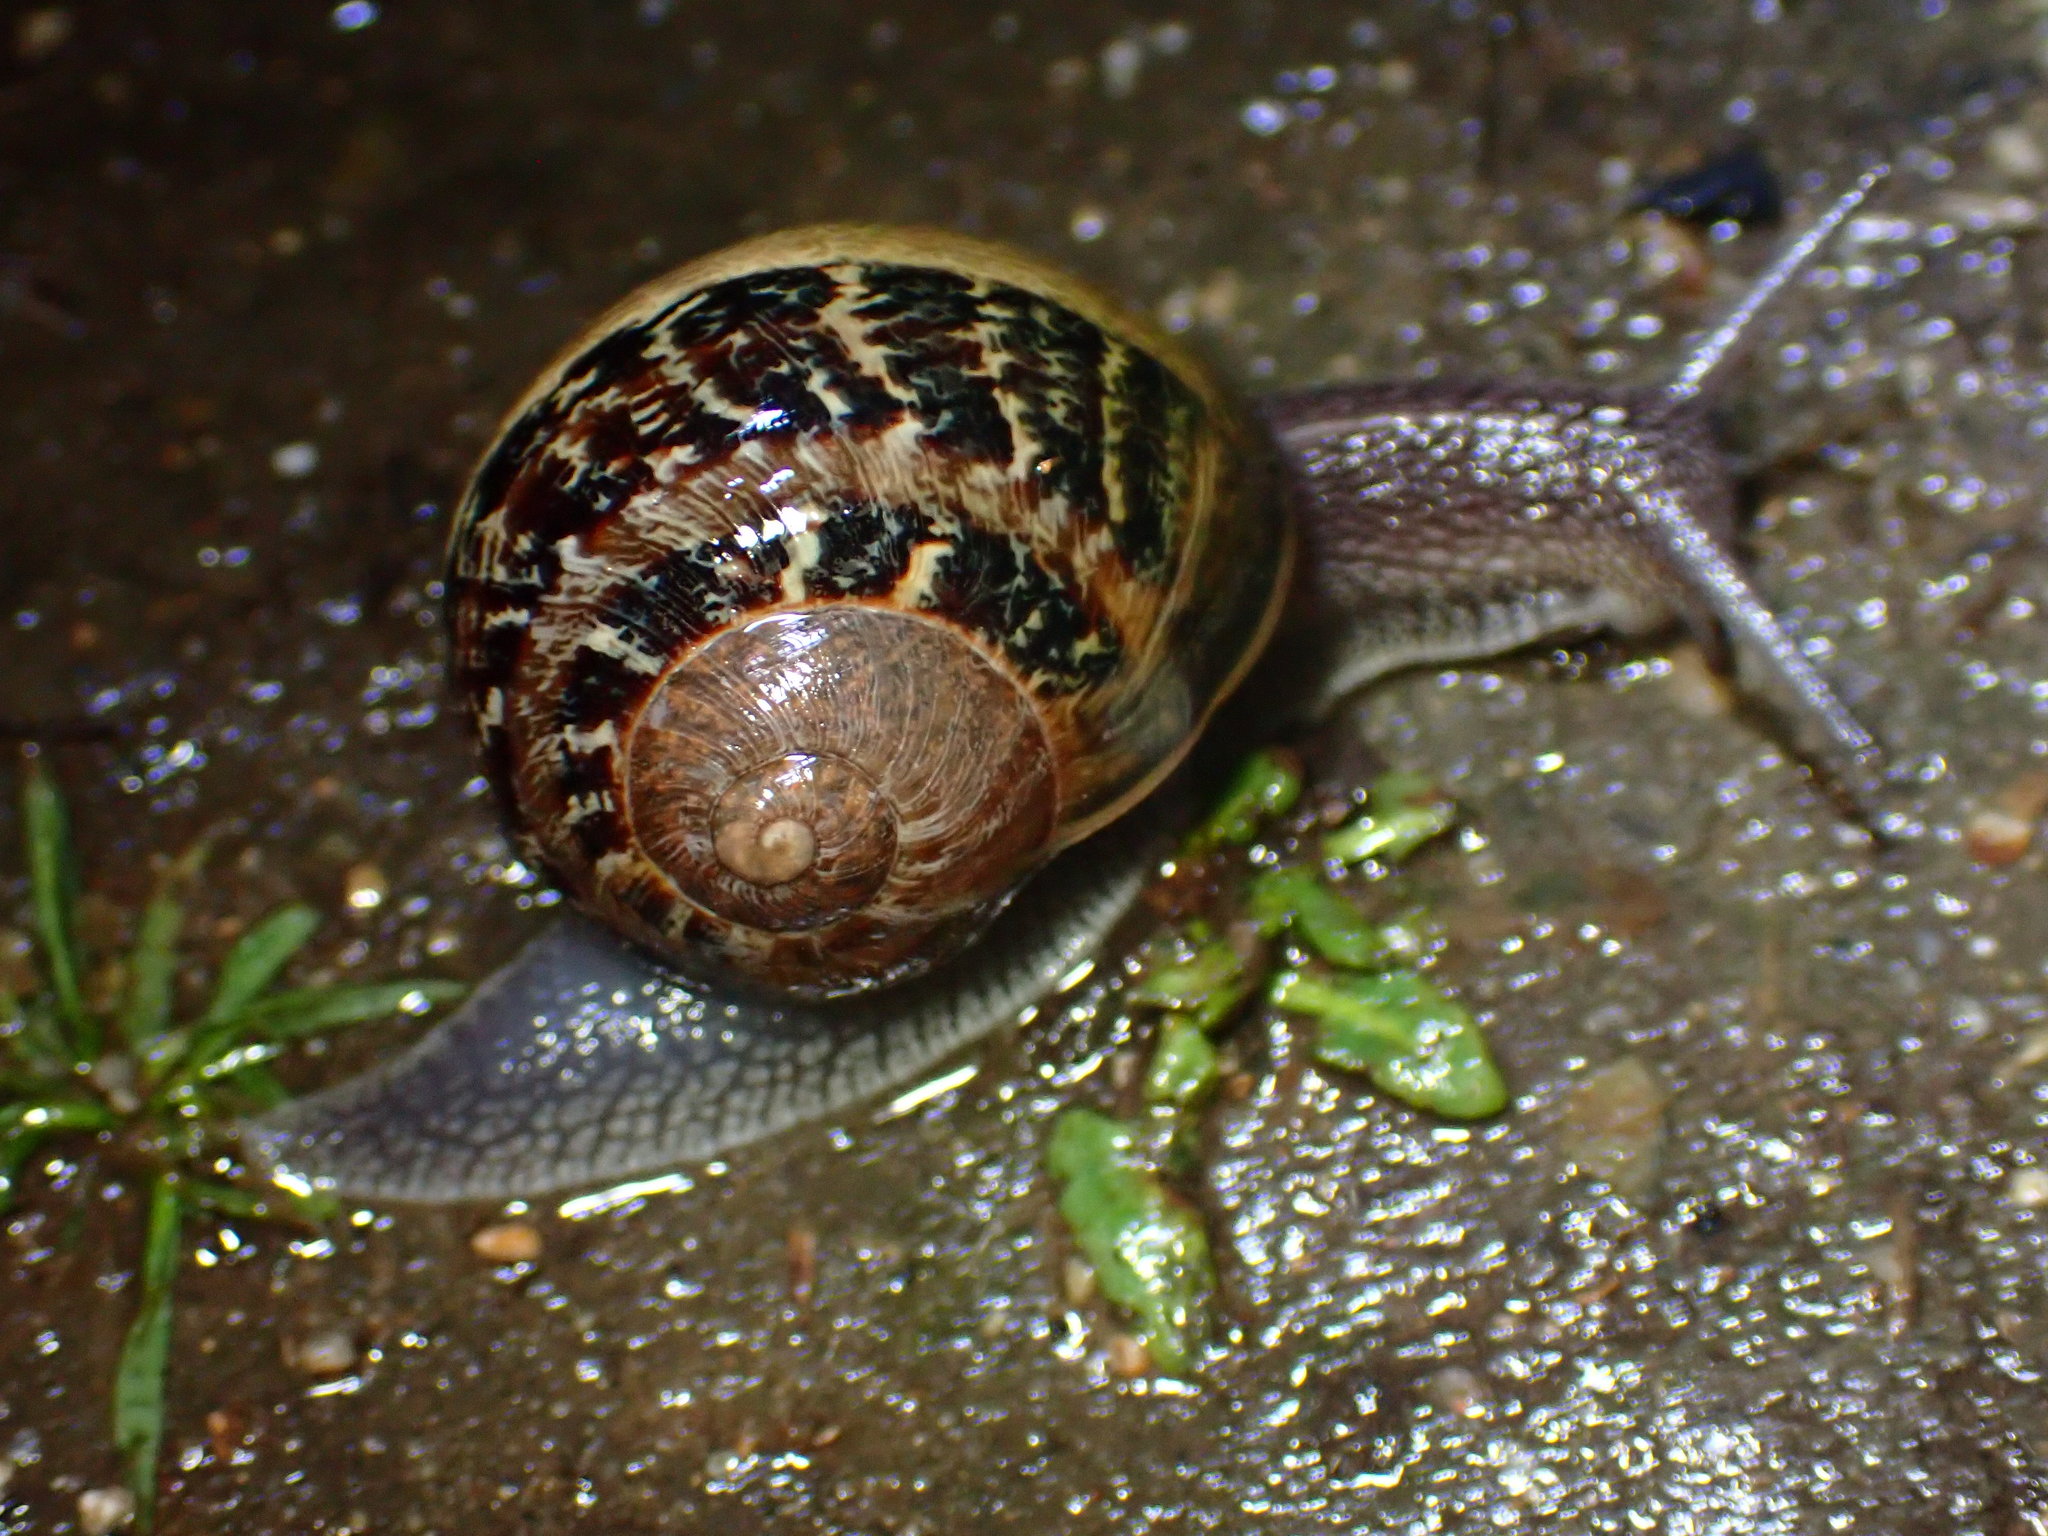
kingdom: Animalia
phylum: Mollusca
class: Gastropoda
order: Stylommatophora
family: Helicidae
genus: Cornu
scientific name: Cornu aspersum
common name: Brown garden snail
